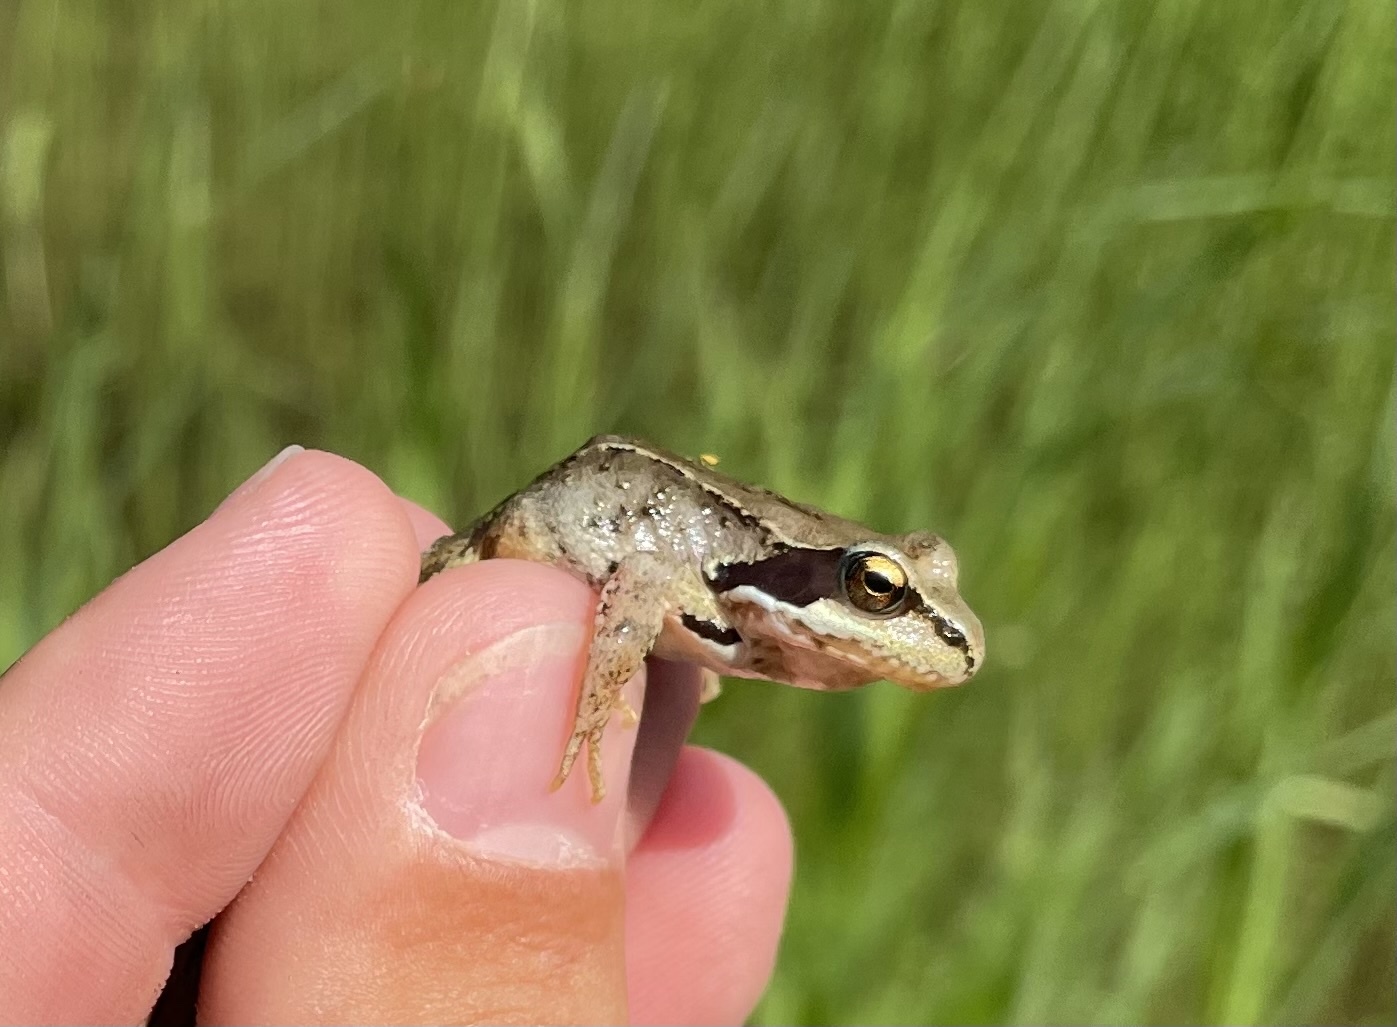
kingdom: Animalia
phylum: Chordata
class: Amphibia
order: Anura
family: Ranidae
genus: Rana
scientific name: Rana temporaria
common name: Common frog
